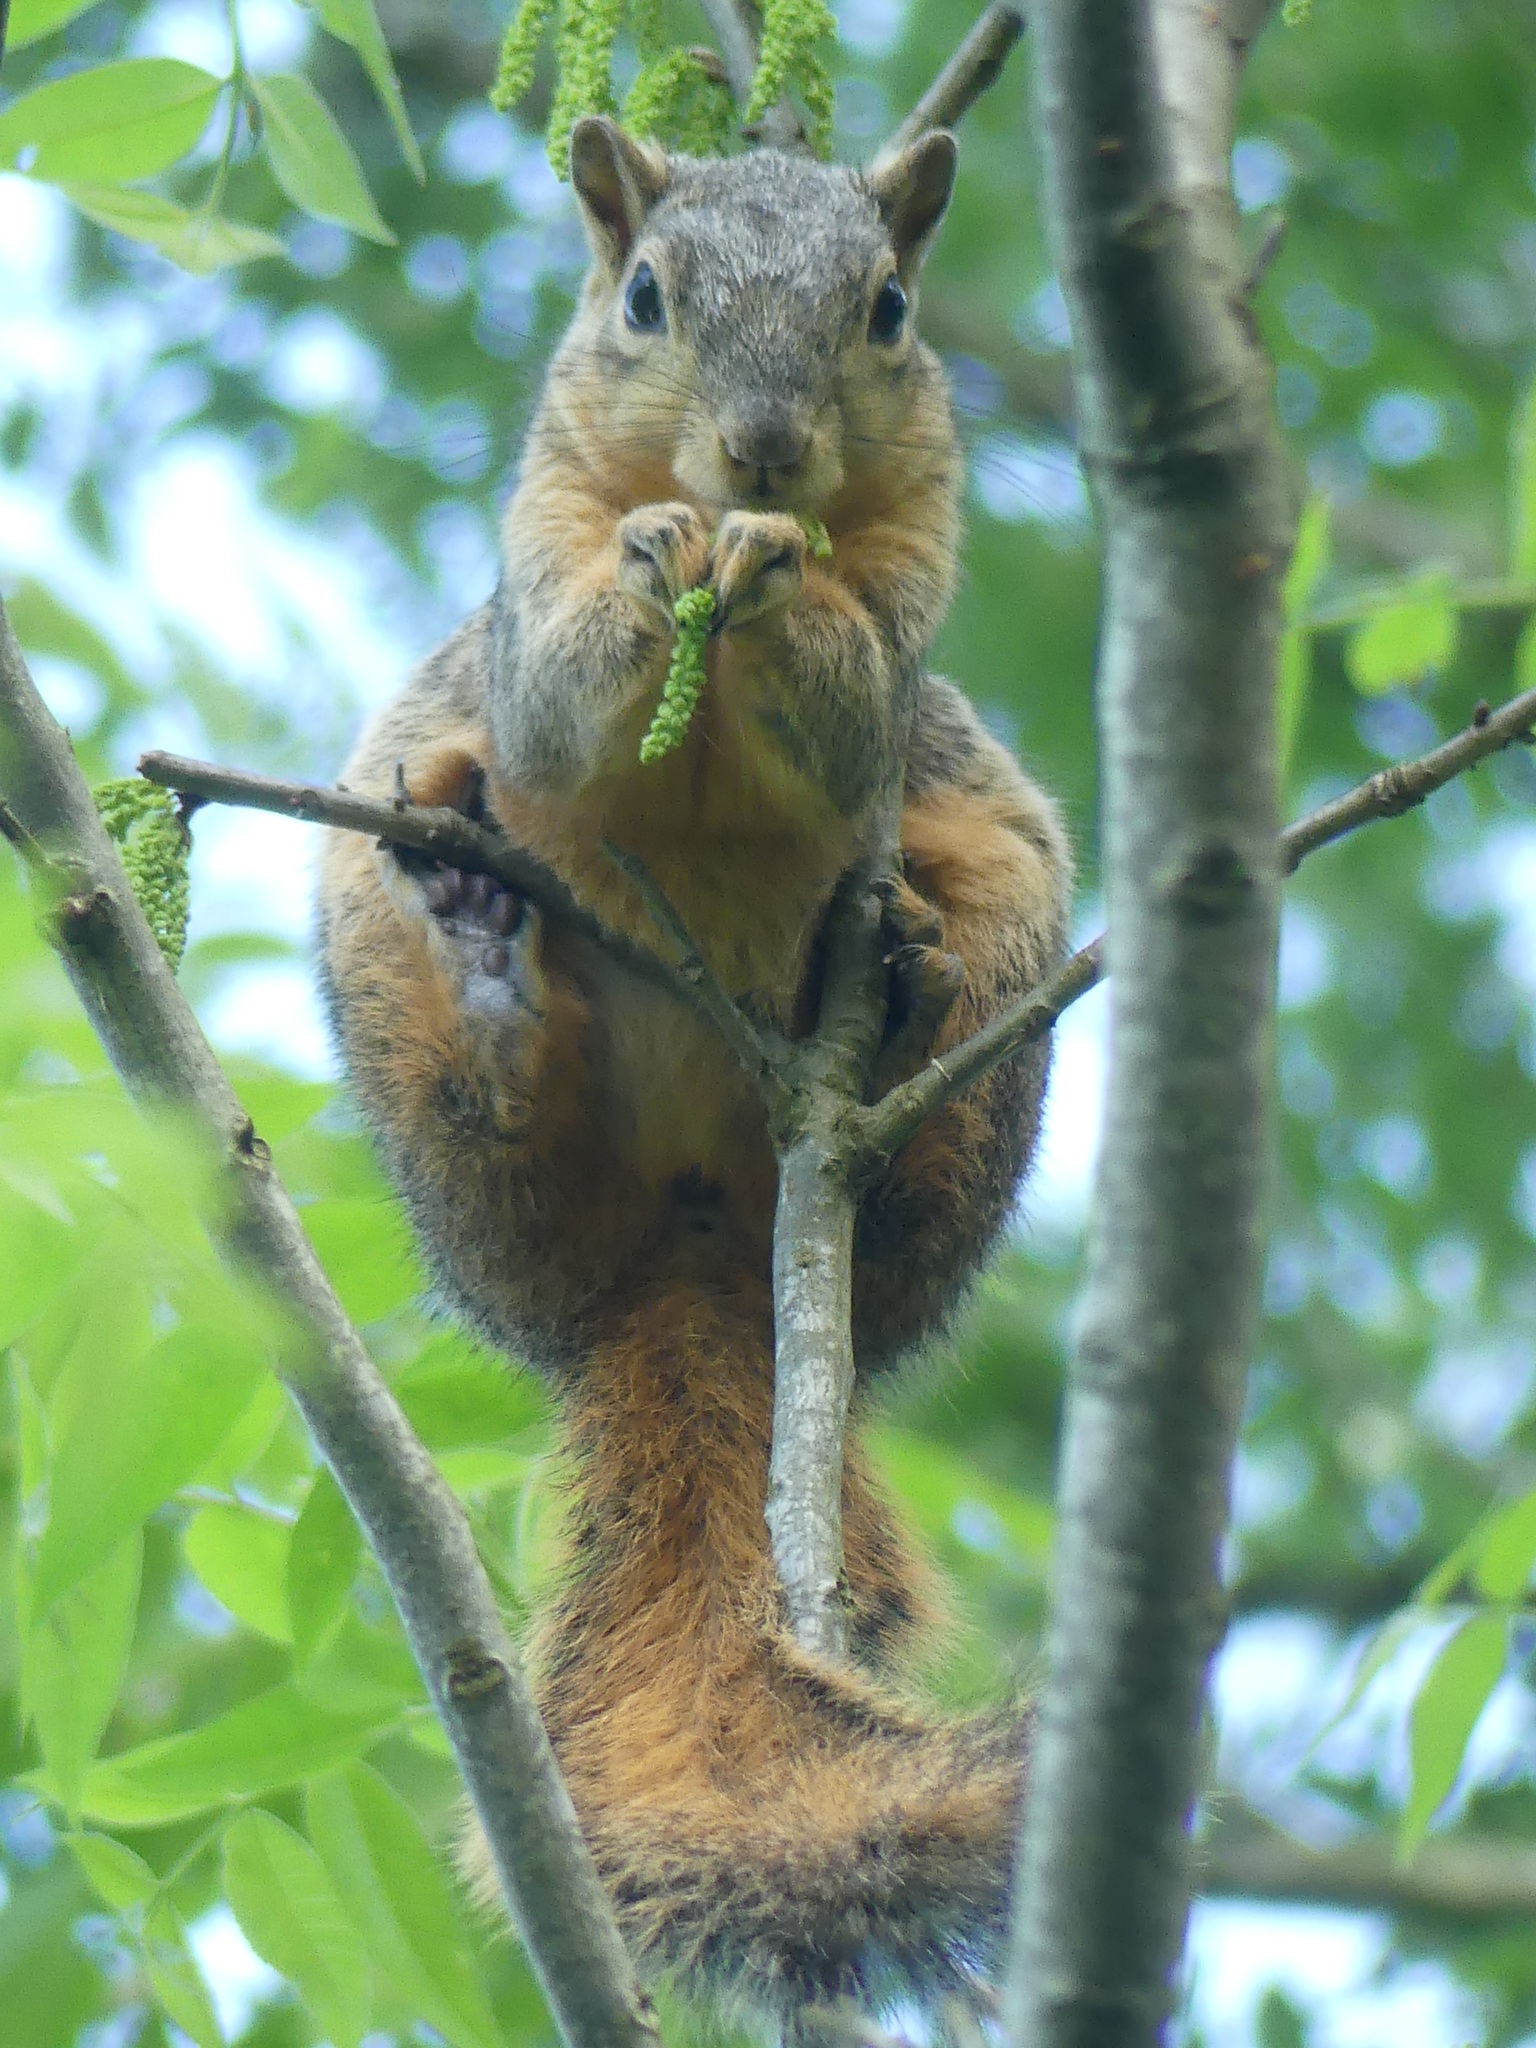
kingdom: Animalia
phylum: Chordata
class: Mammalia
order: Rodentia
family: Sciuridae
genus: Sciurus
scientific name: Sciurus niger
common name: Fox squirrel
